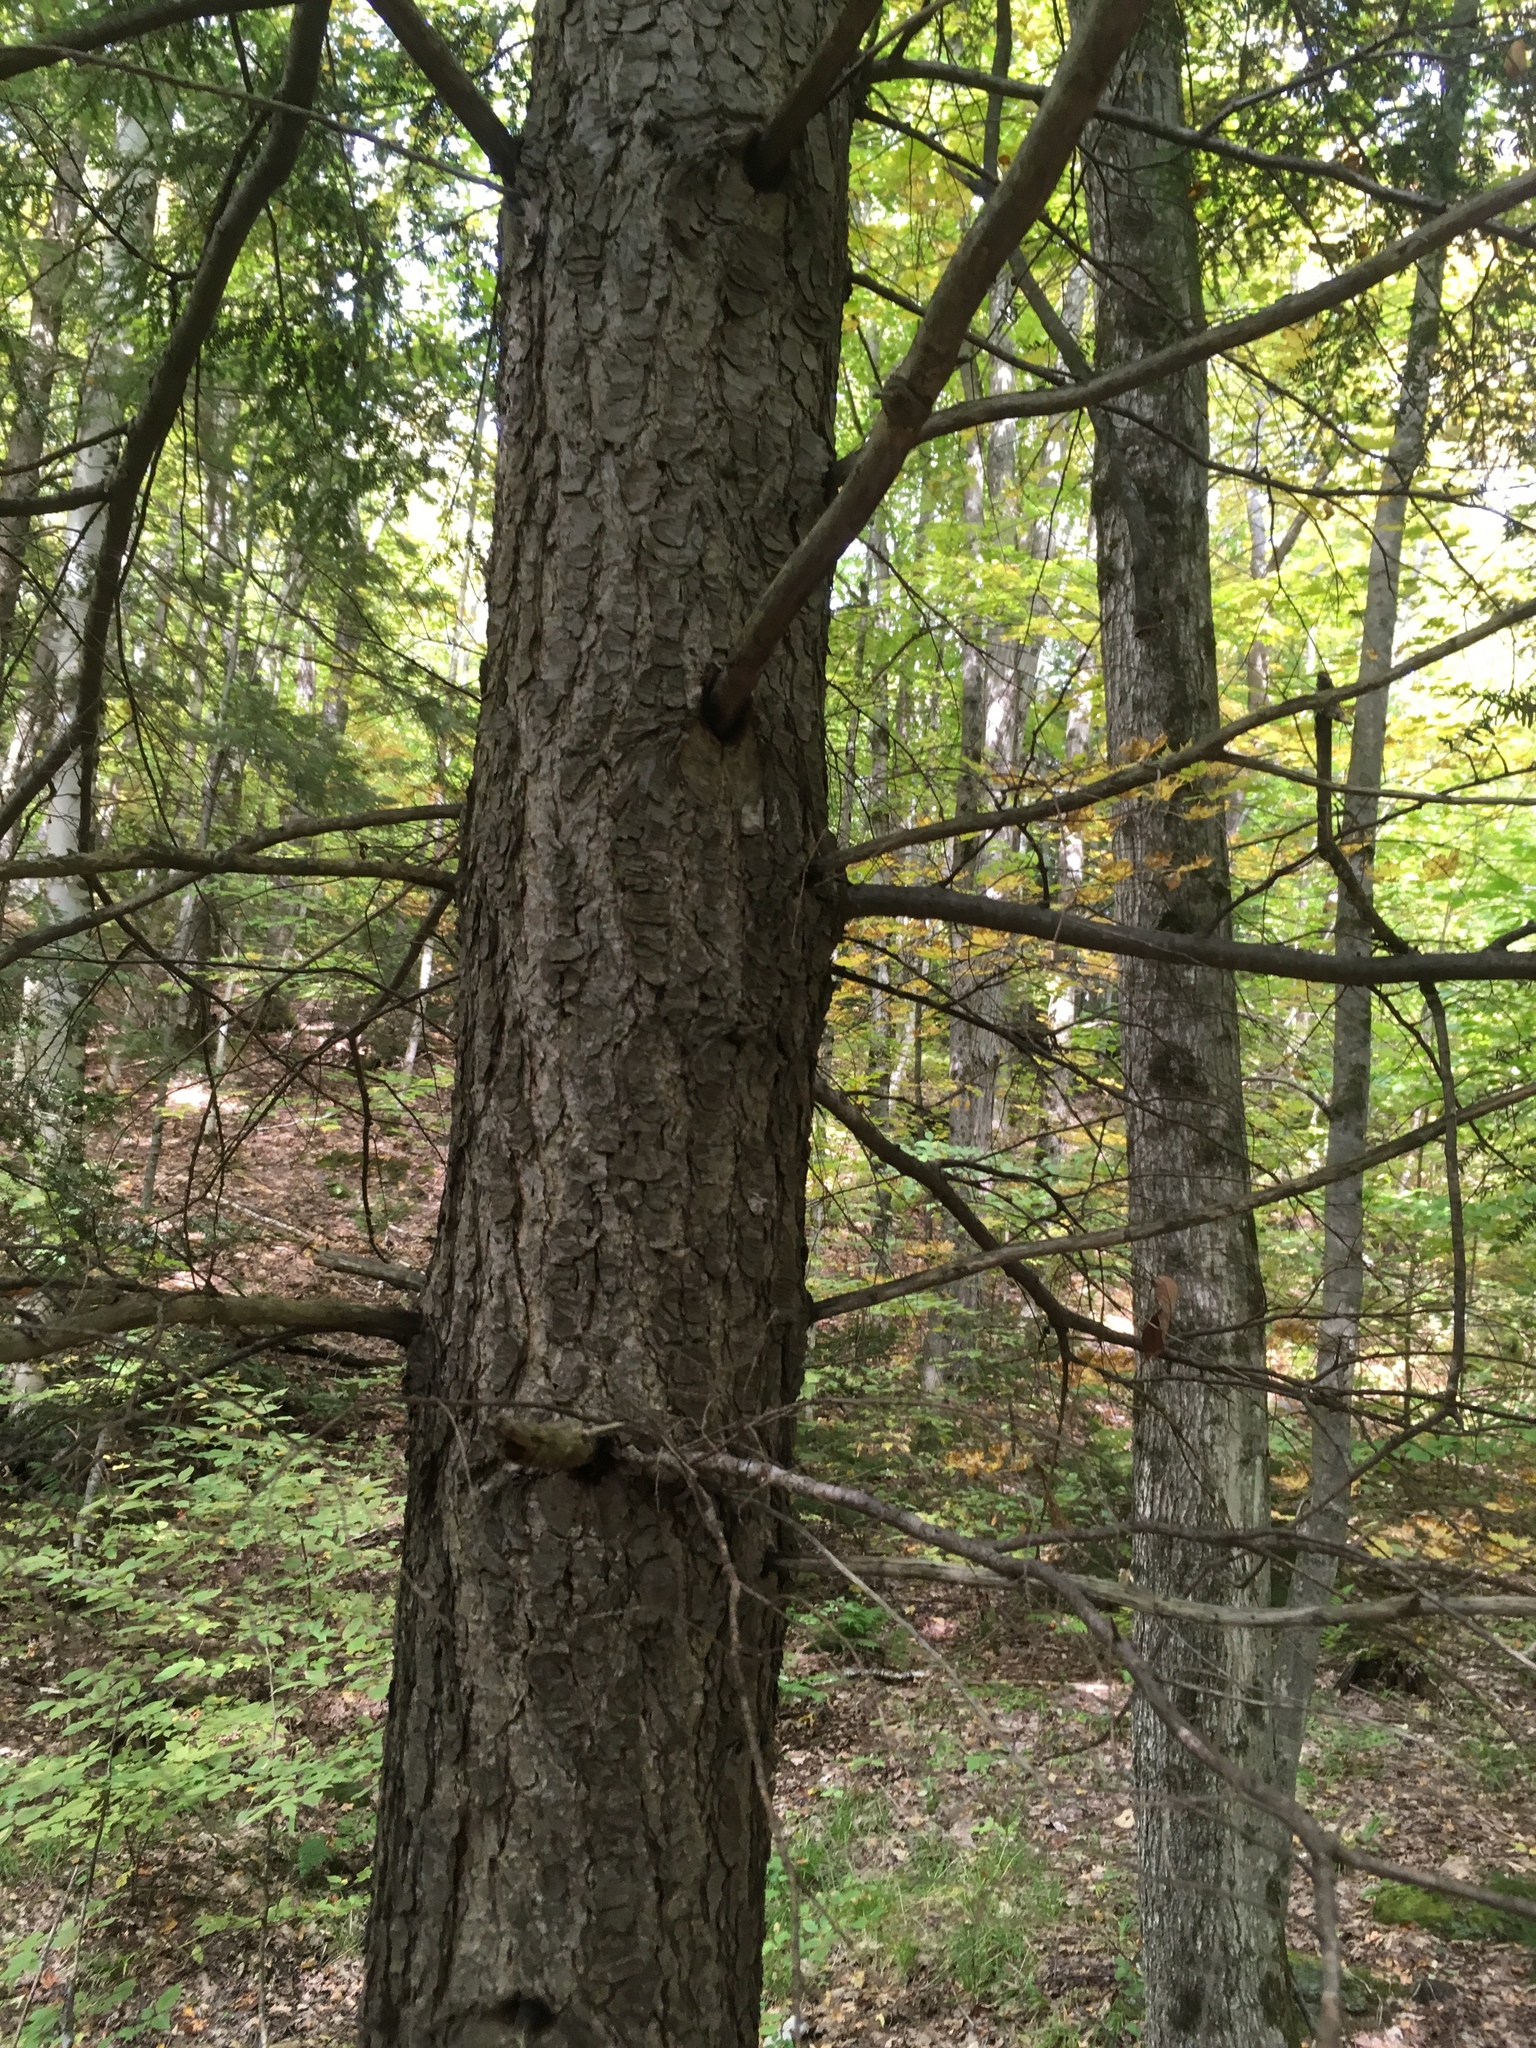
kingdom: Plantae
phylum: Tracheophyta
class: Pinopsida
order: Pinales
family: Pinaceae
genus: Tsuga
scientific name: Tsuga canadensis
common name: Eastern hemlock
